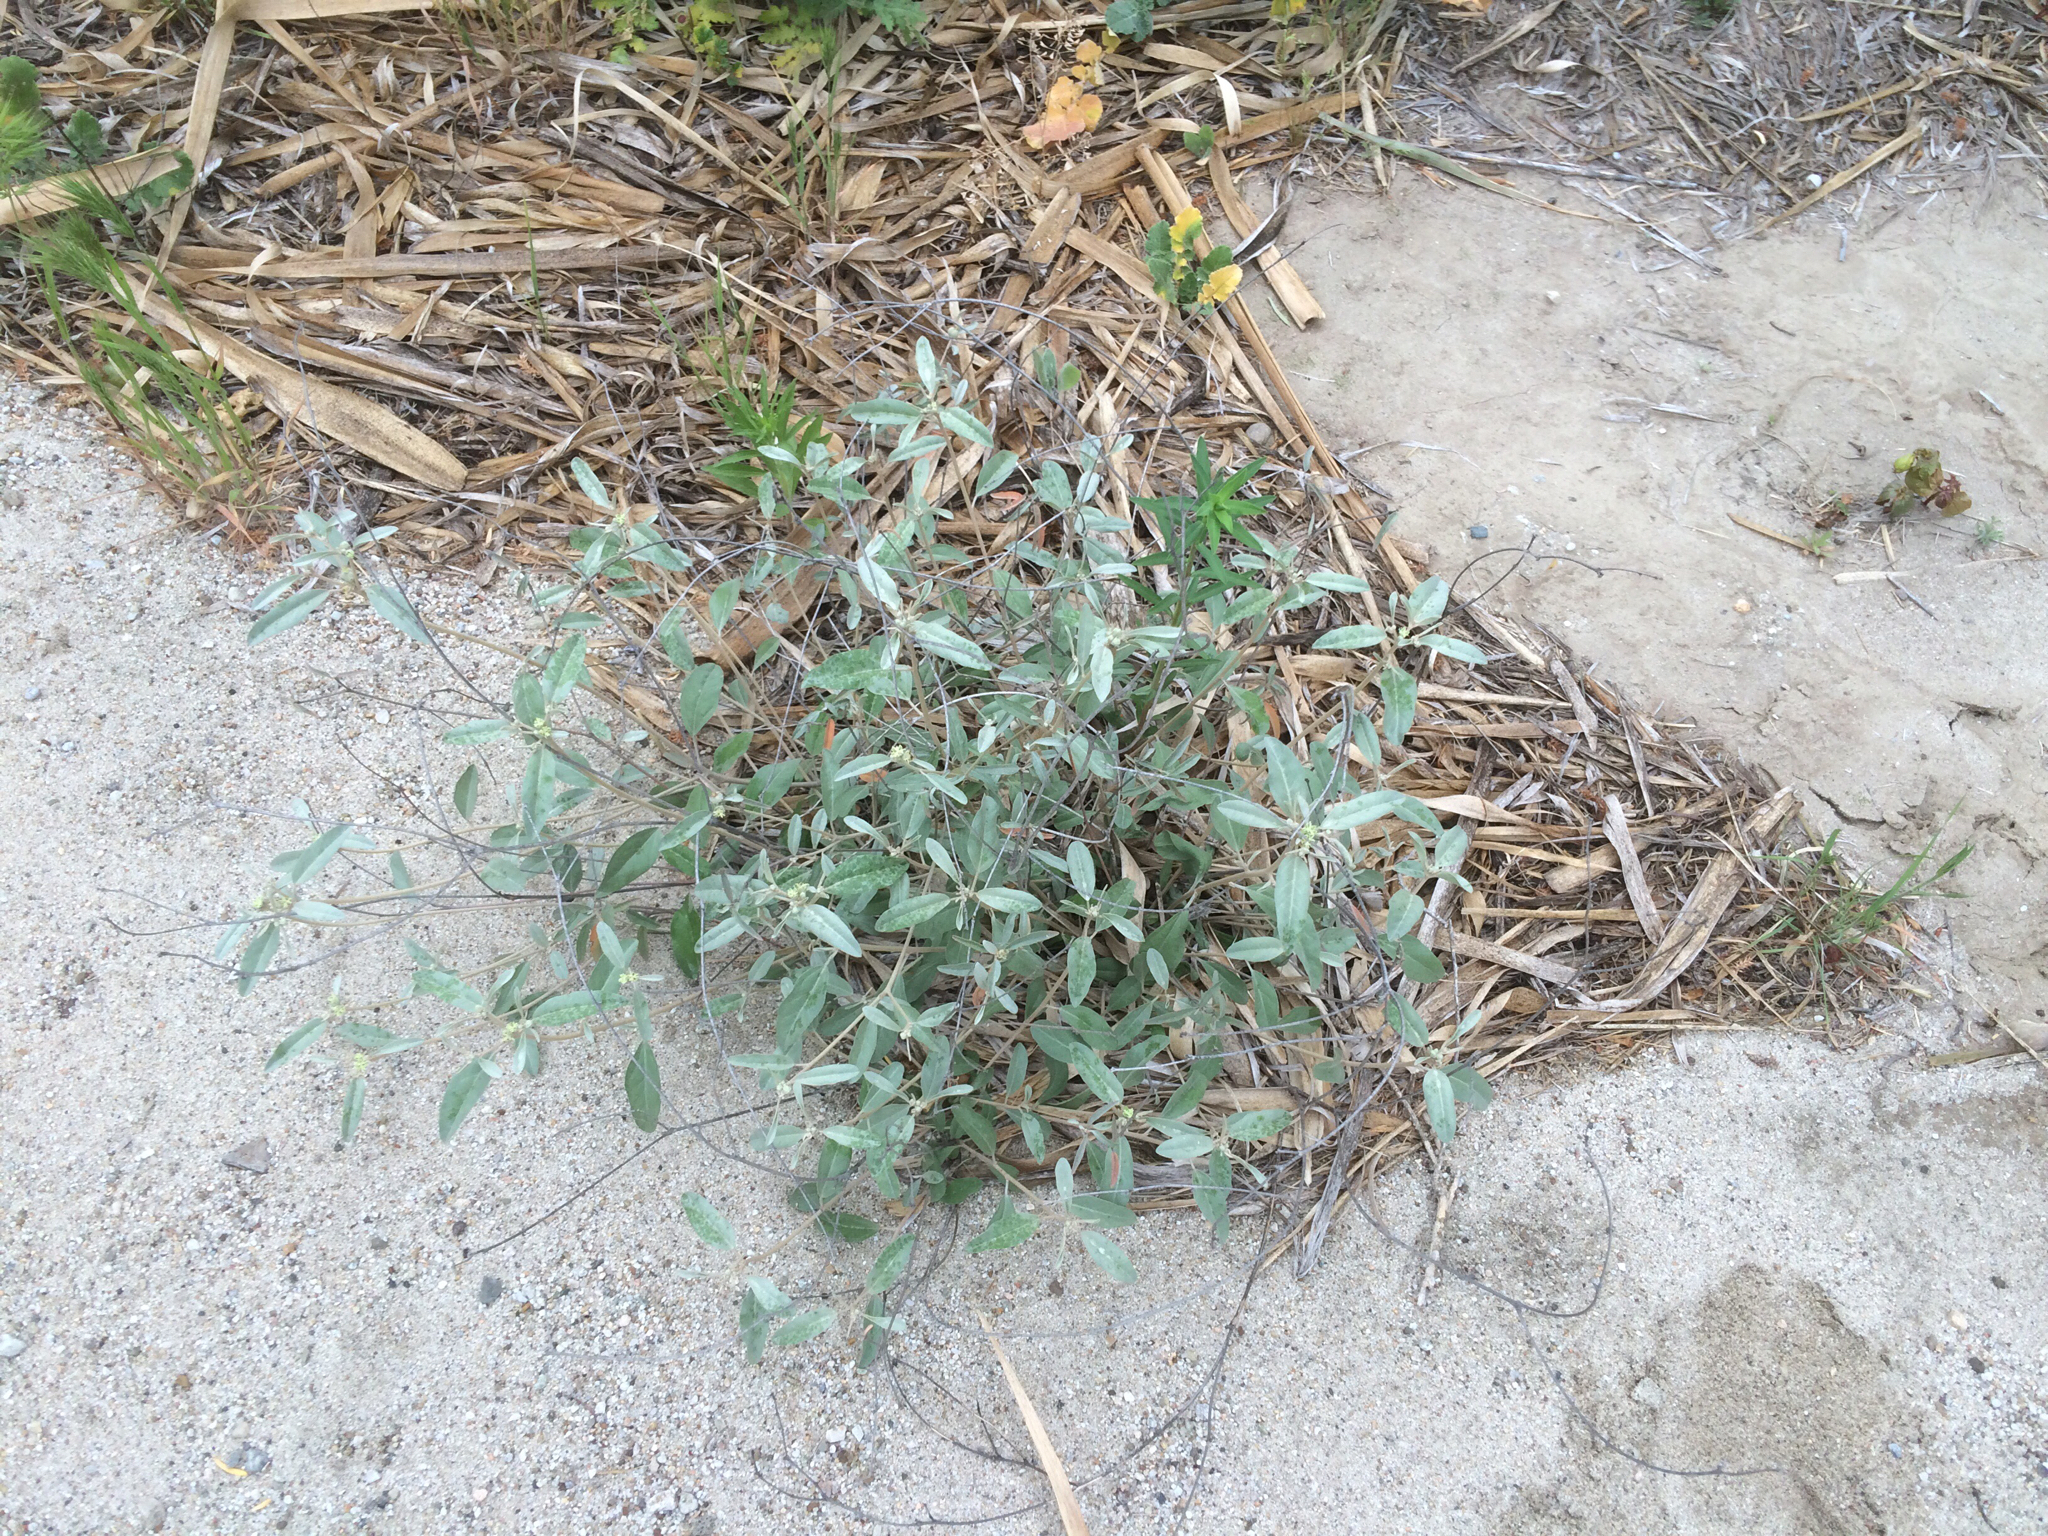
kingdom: Plantae
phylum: Tracheophyta
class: Magnoliopsida
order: Malpighiales
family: Euphorbiaceae
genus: Croton
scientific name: Croton californicus
